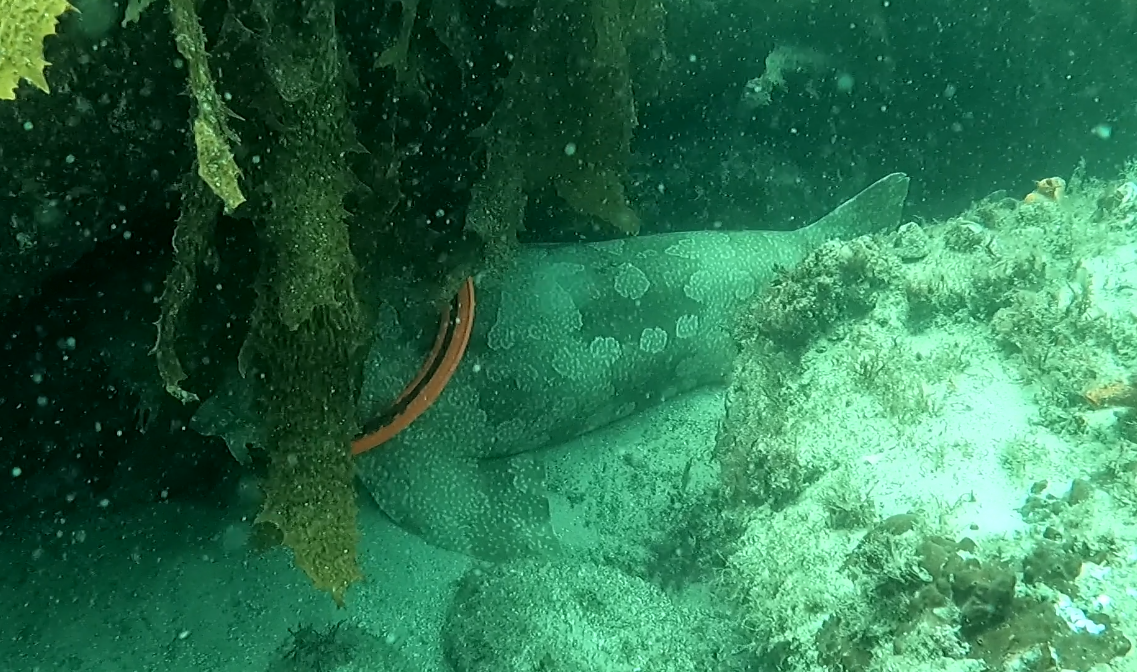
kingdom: Animalia
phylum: Chordata
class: Elasmobranchii
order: Orectolobiformes
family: Orectolobidae
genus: Orectolobus
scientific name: Orectolobus maculatus
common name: Spotted wobbegong
